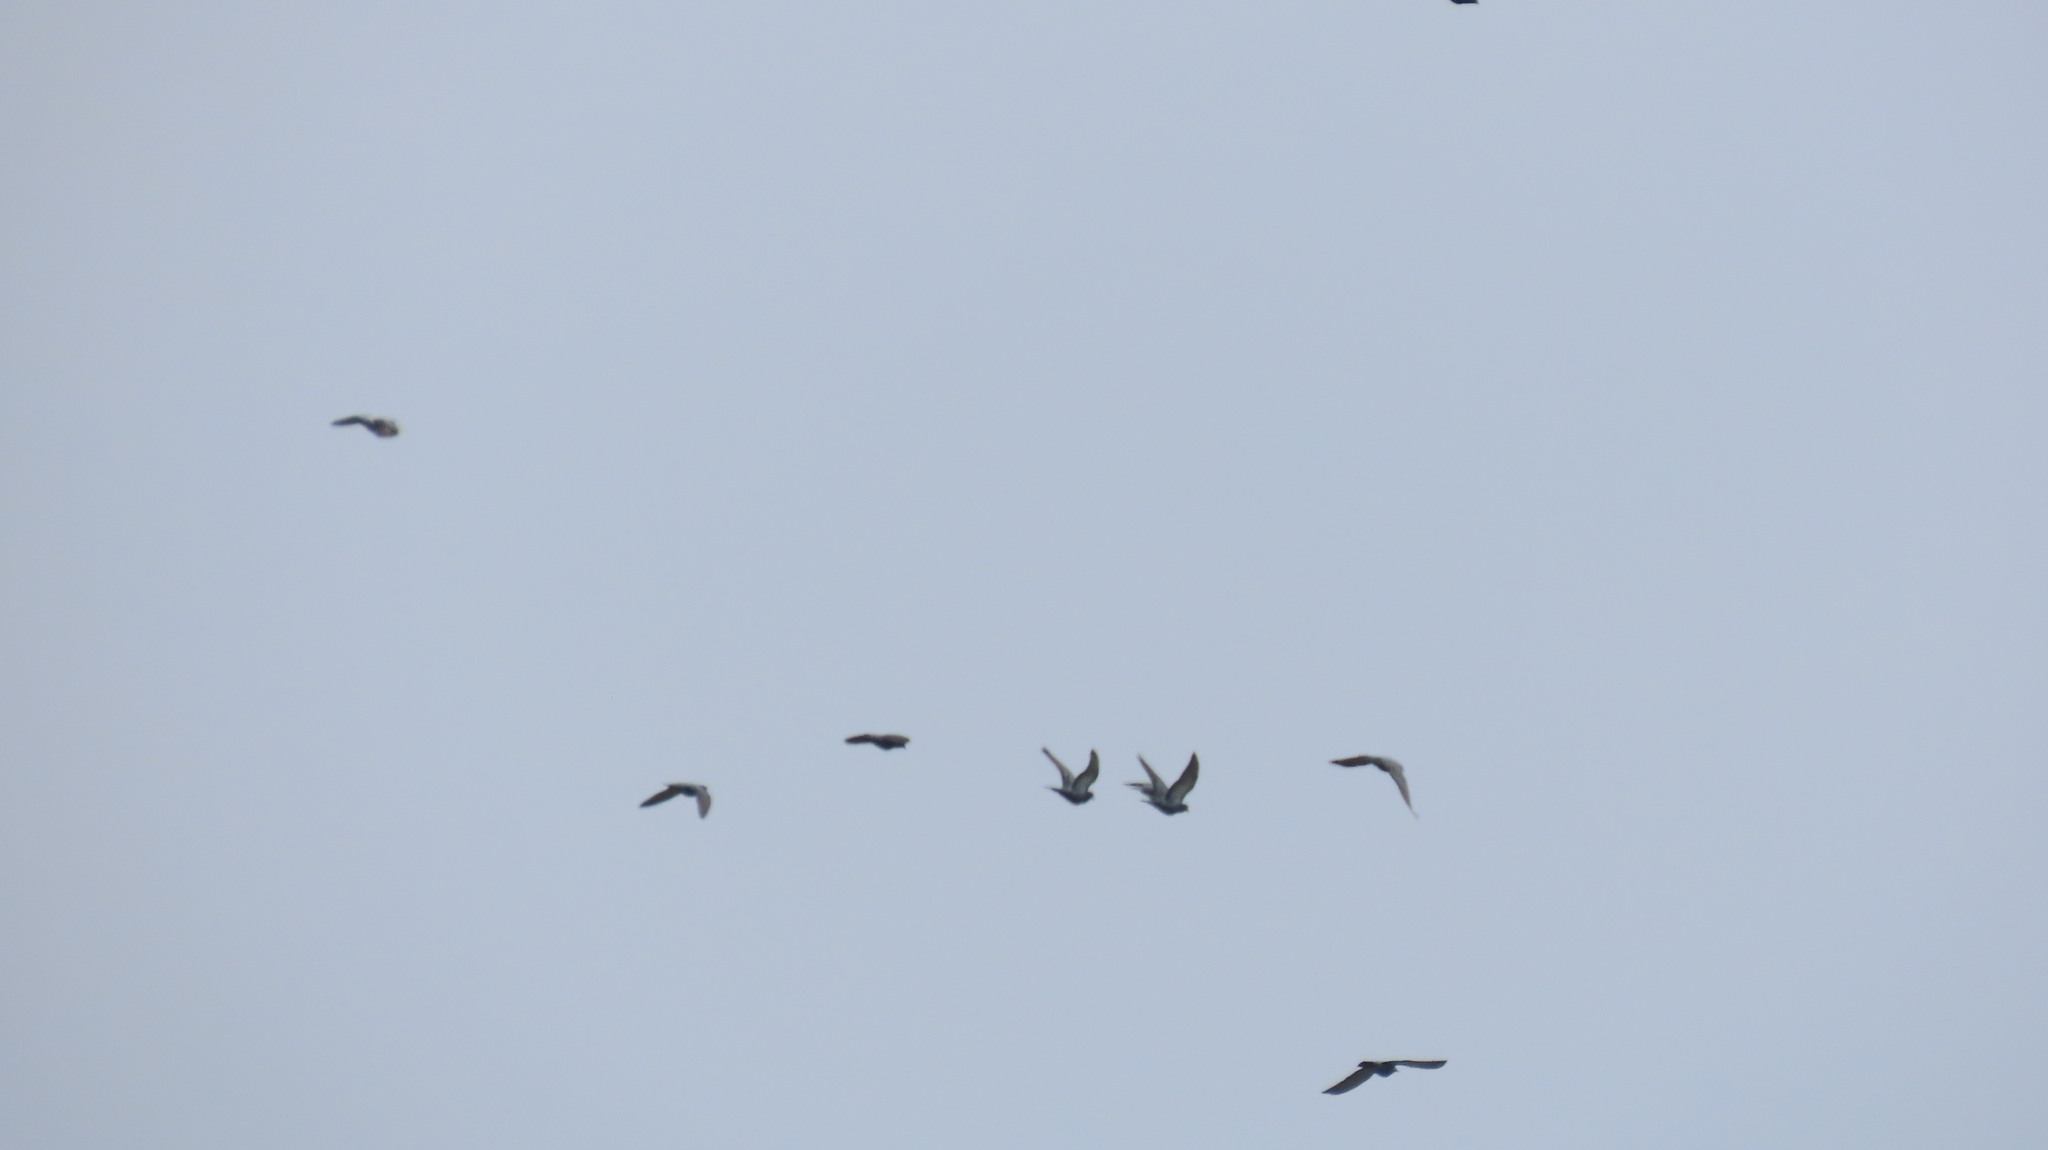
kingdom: Animalia
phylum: Chordata
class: Aves
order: Columbiformes
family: Columbidae
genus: Columba
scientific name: Columba livia
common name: Rock pigeon
